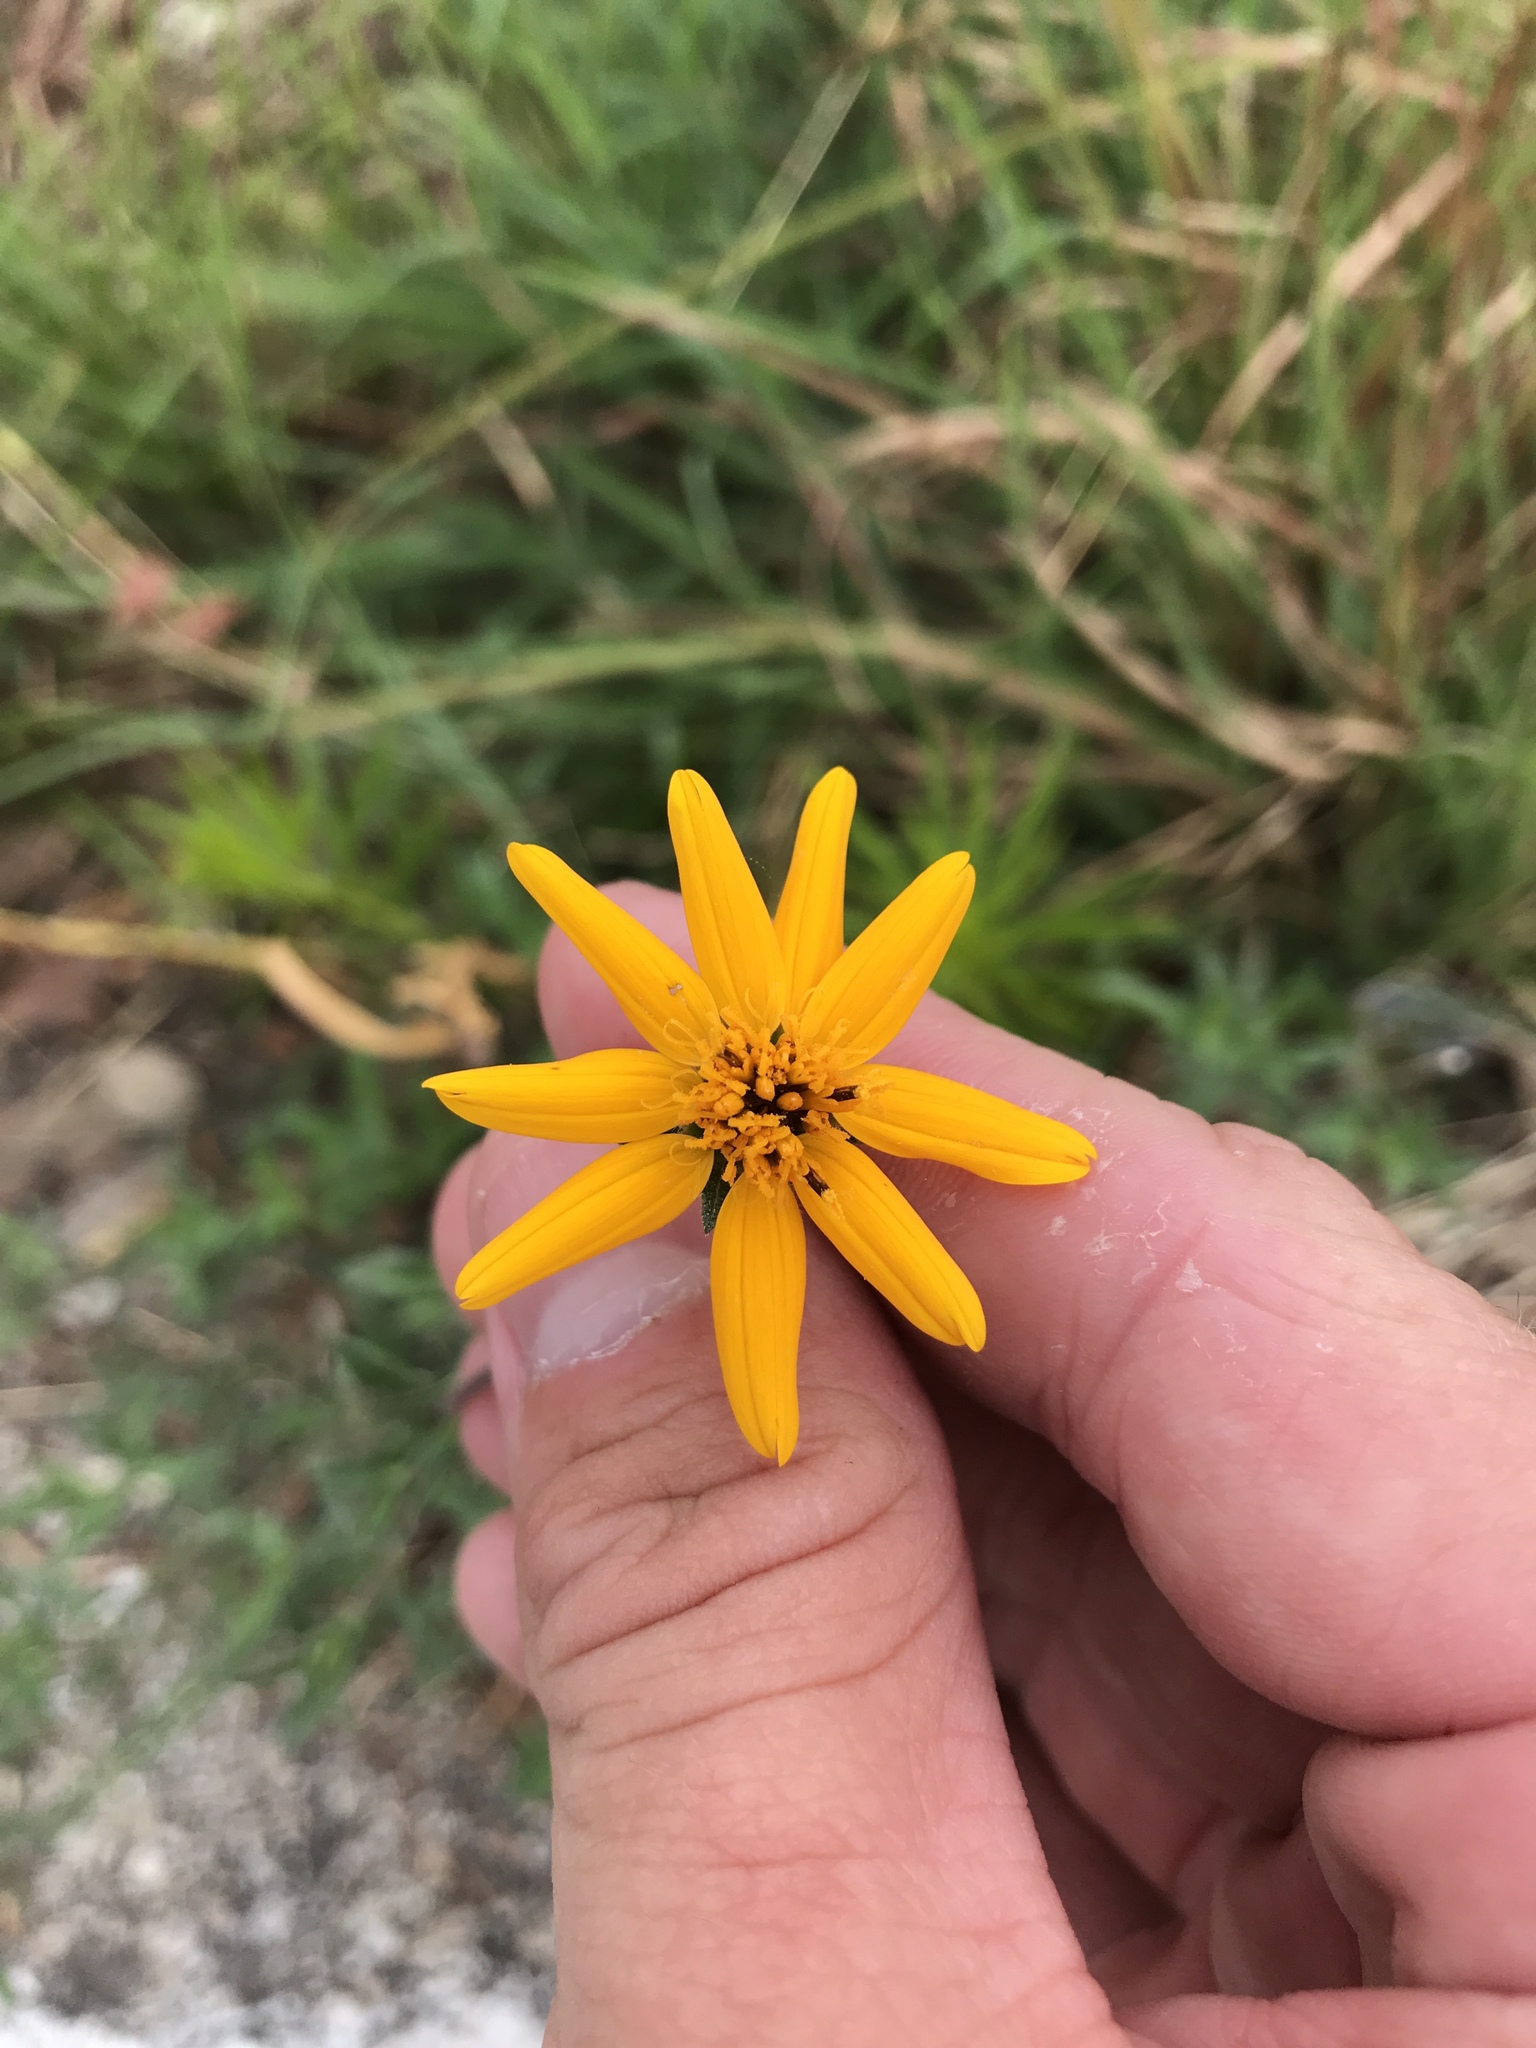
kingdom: Plantae
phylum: Tracheophyta
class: Magnoliopsida
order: Asterales
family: Asteraceae
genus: Wedelia
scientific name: Wedelia acapulcensis
